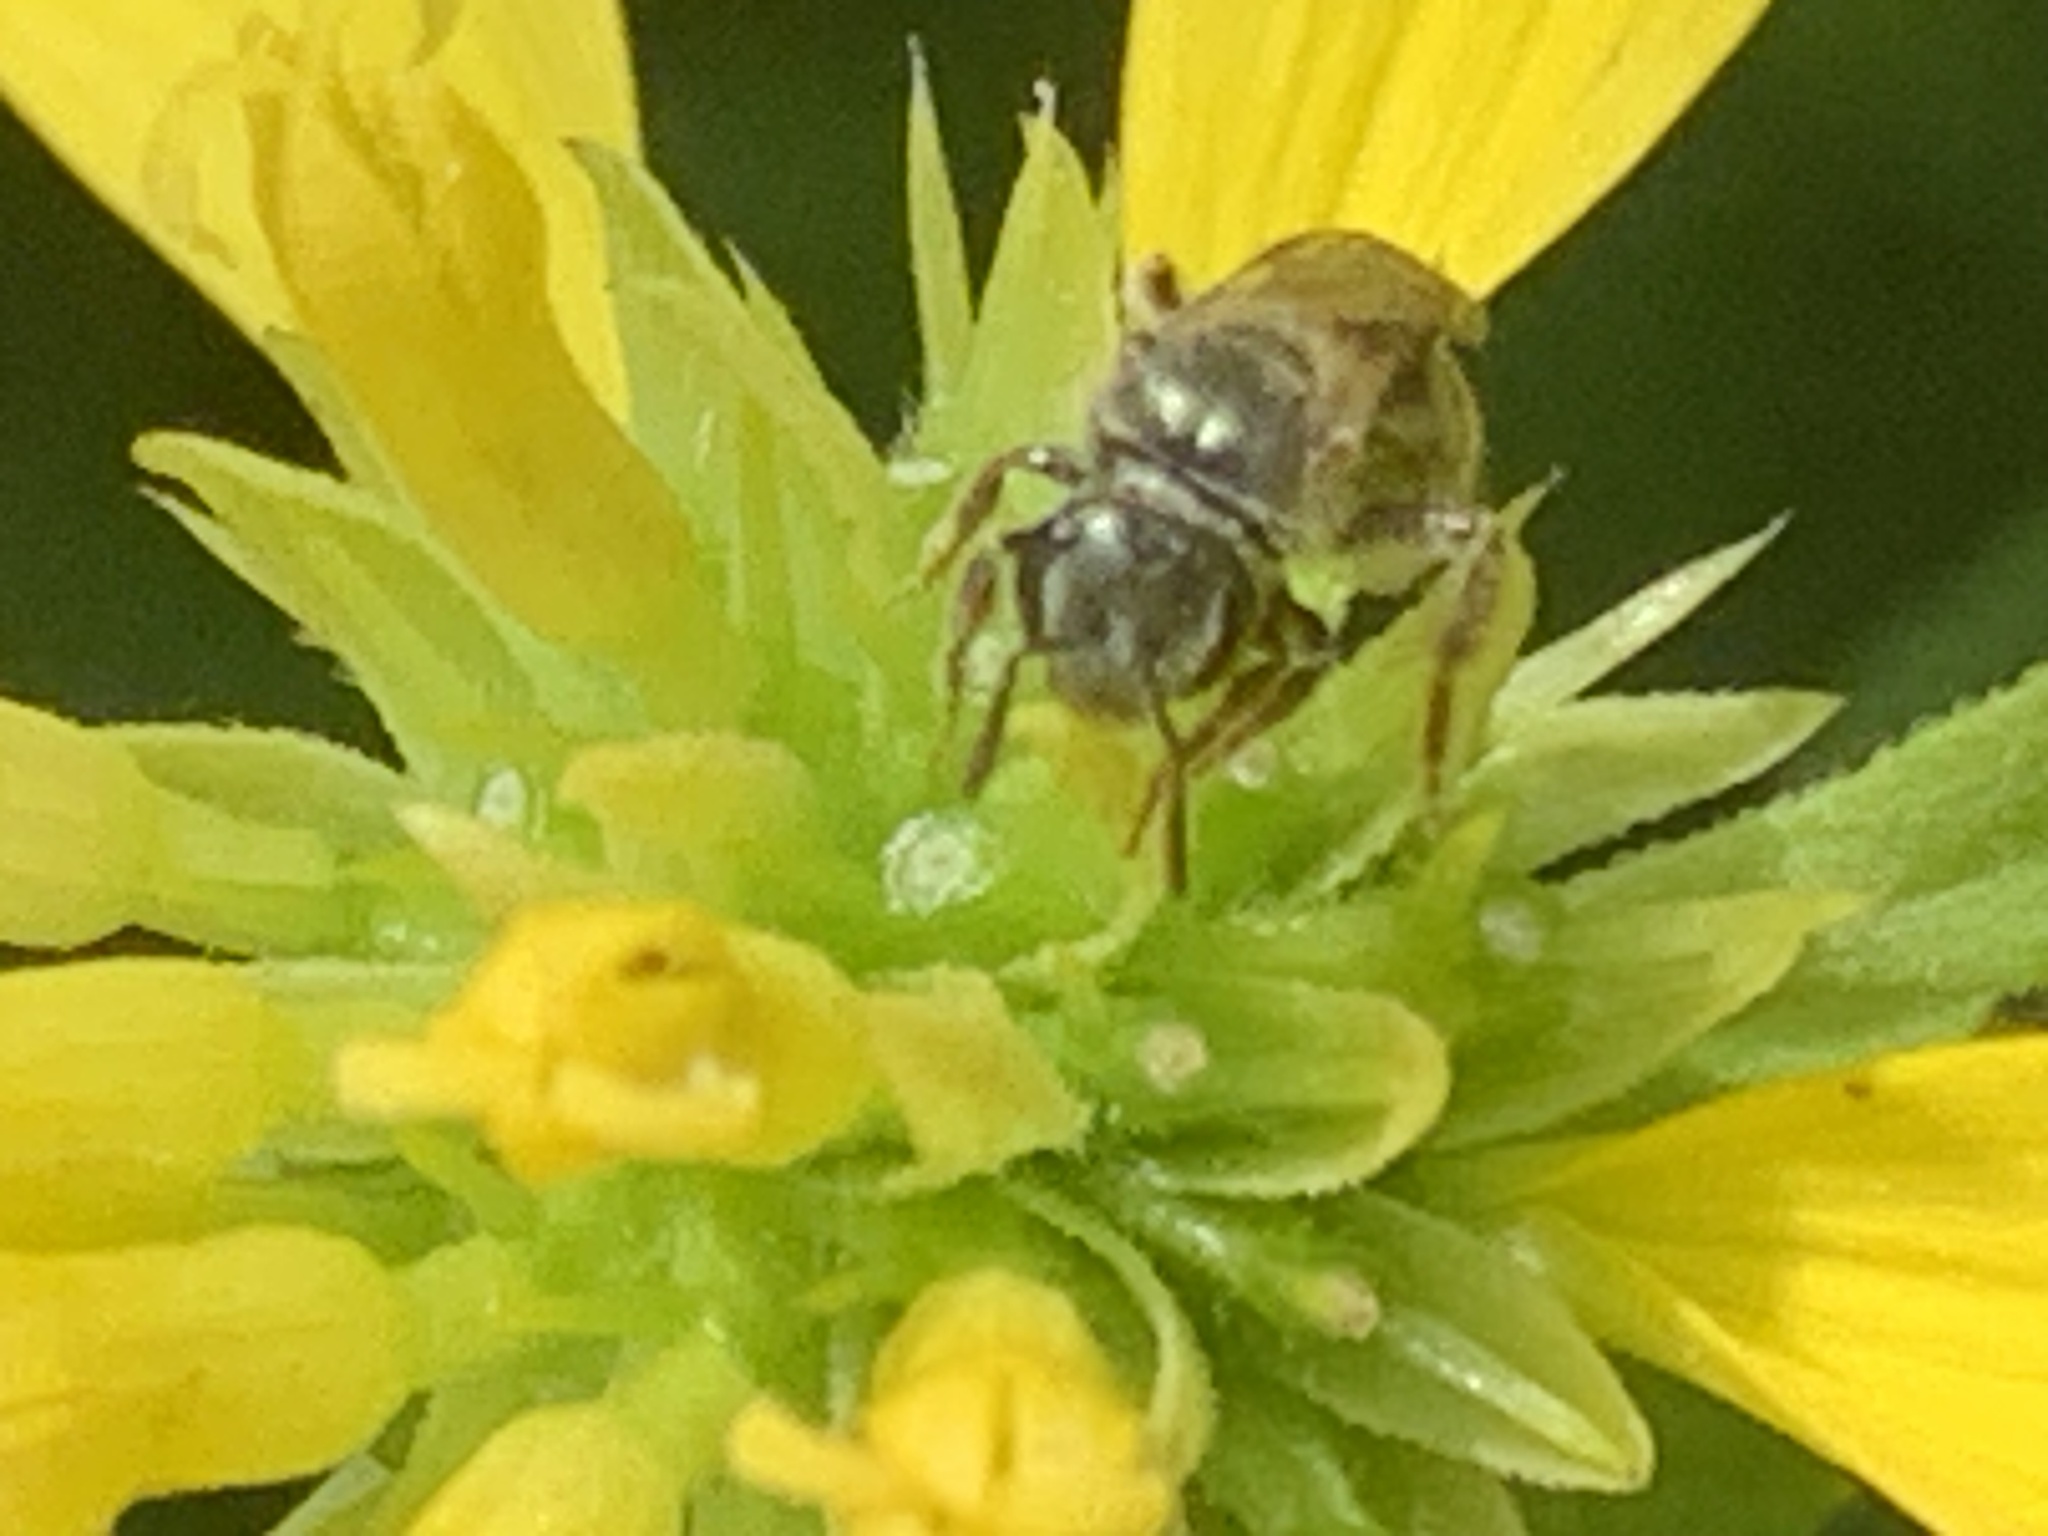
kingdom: Animalia
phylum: Arthropoda
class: Insecta
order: Hymenoptera
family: Halictidae
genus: Lasioglossum
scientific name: Lasioglossum
